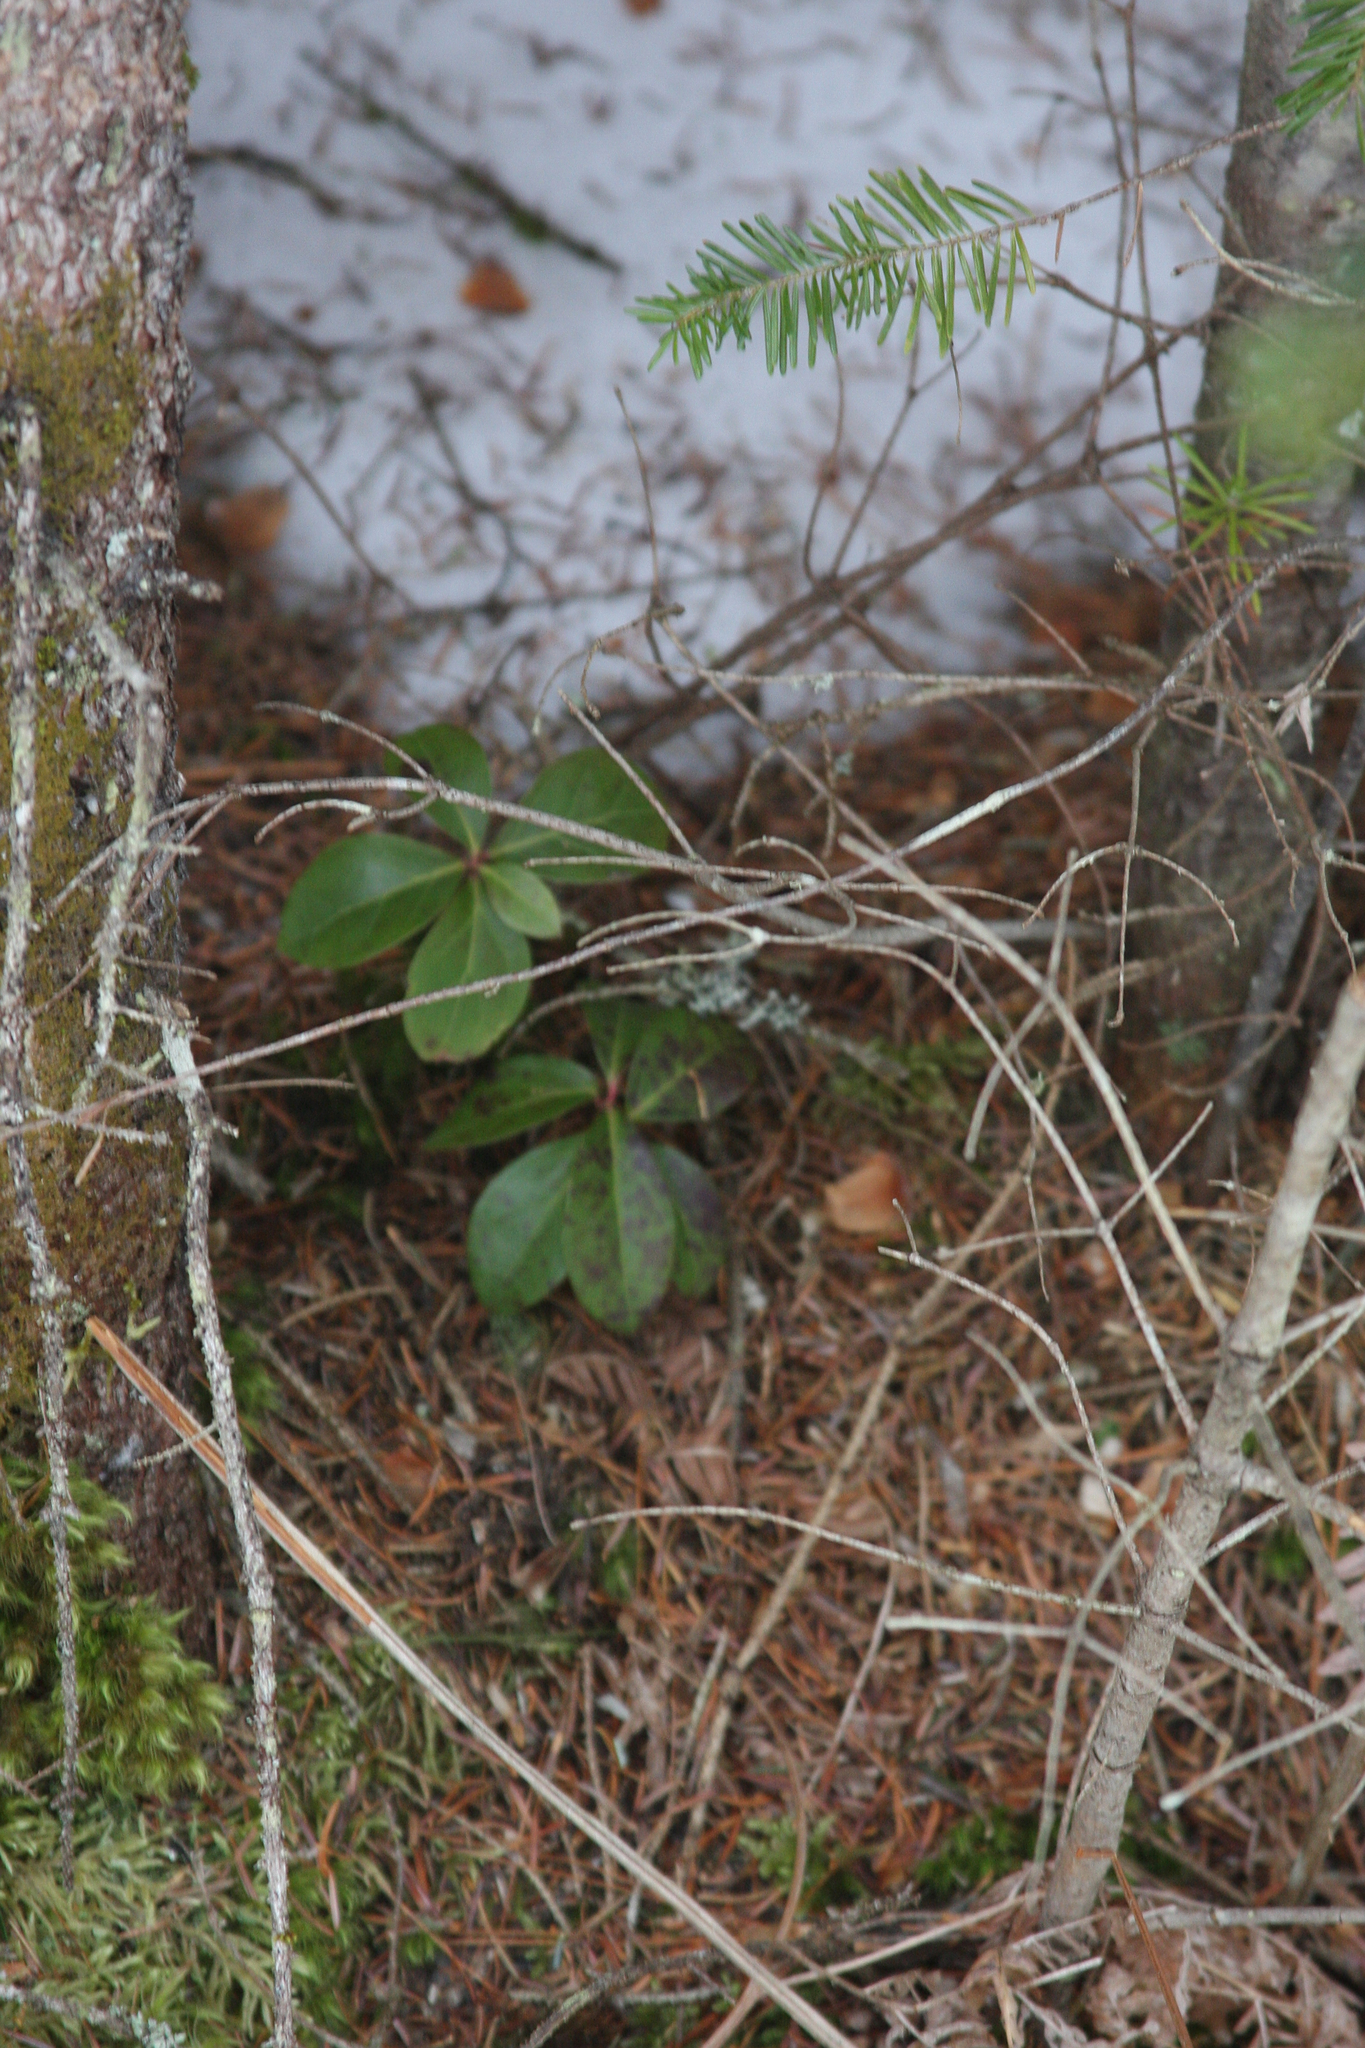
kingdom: Plantae
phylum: Tracheophyta
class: Magnoliopsida
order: Ericales
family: Ericaceae
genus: Gaultheria
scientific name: Gaultheria procumbens
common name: Checkerberry
